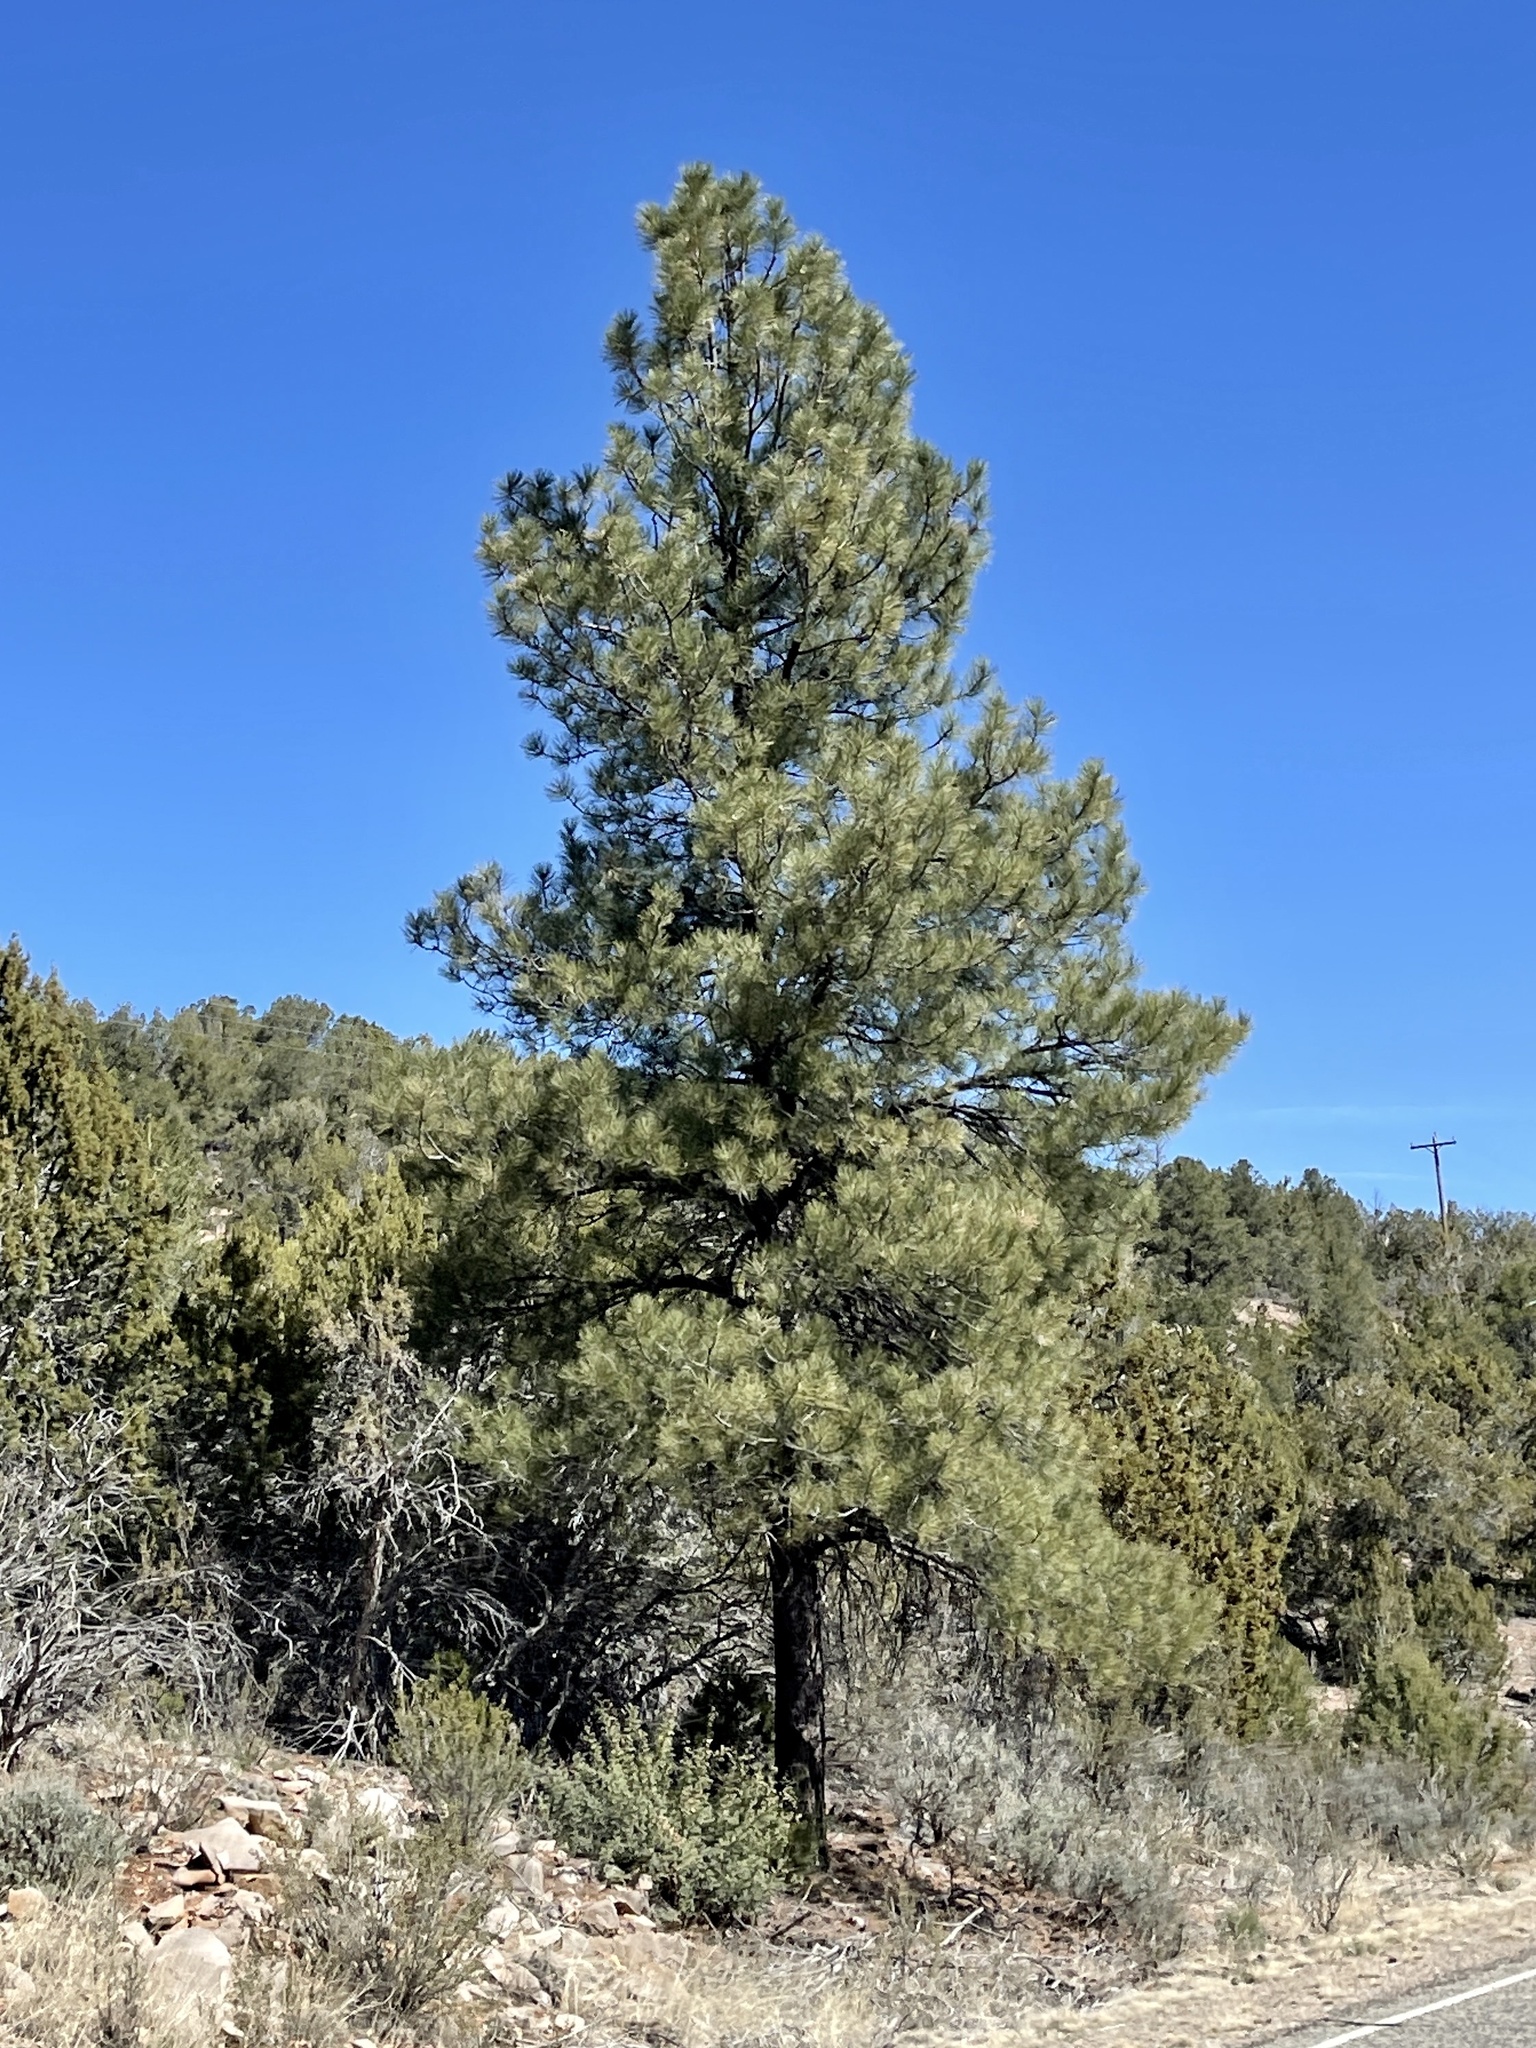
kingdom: Plantae
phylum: Tracheophyta
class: Pinopsida
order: Pinales
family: Pinaceae
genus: Pinus
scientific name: Pinus ponderosa
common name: Western yellow-pine
